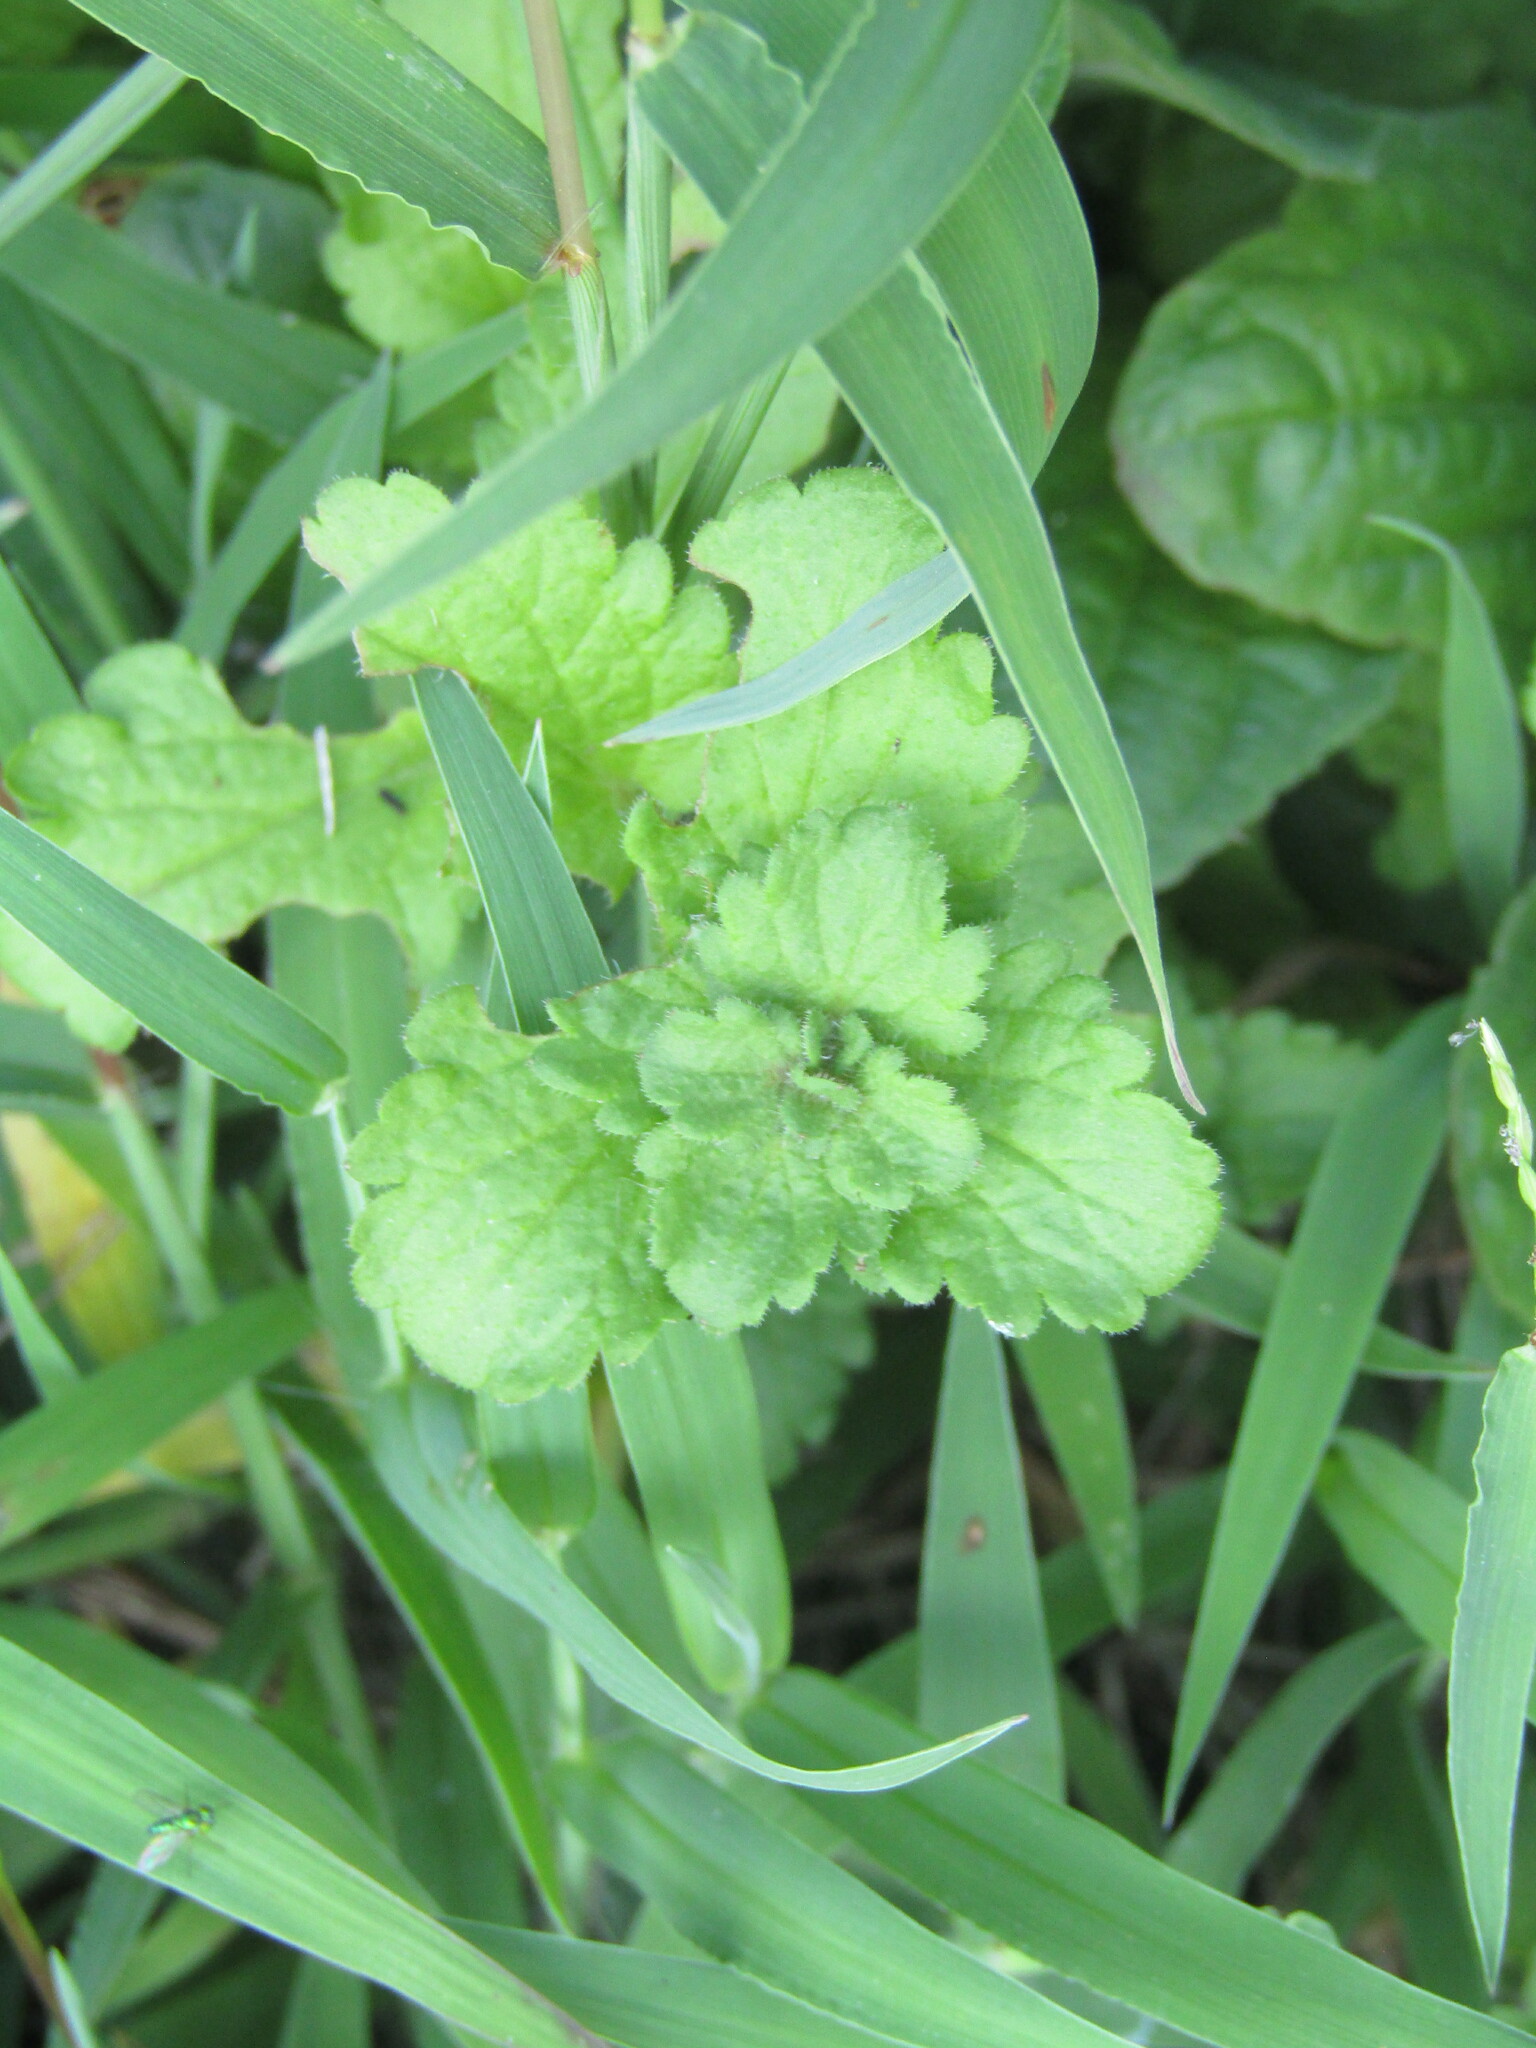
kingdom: Plantae
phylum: Tracheophyta
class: Magnoliopsida
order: Lamiales
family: Plantaginaceae
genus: Veronica
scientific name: Veronica persica
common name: Common field-speedwell
